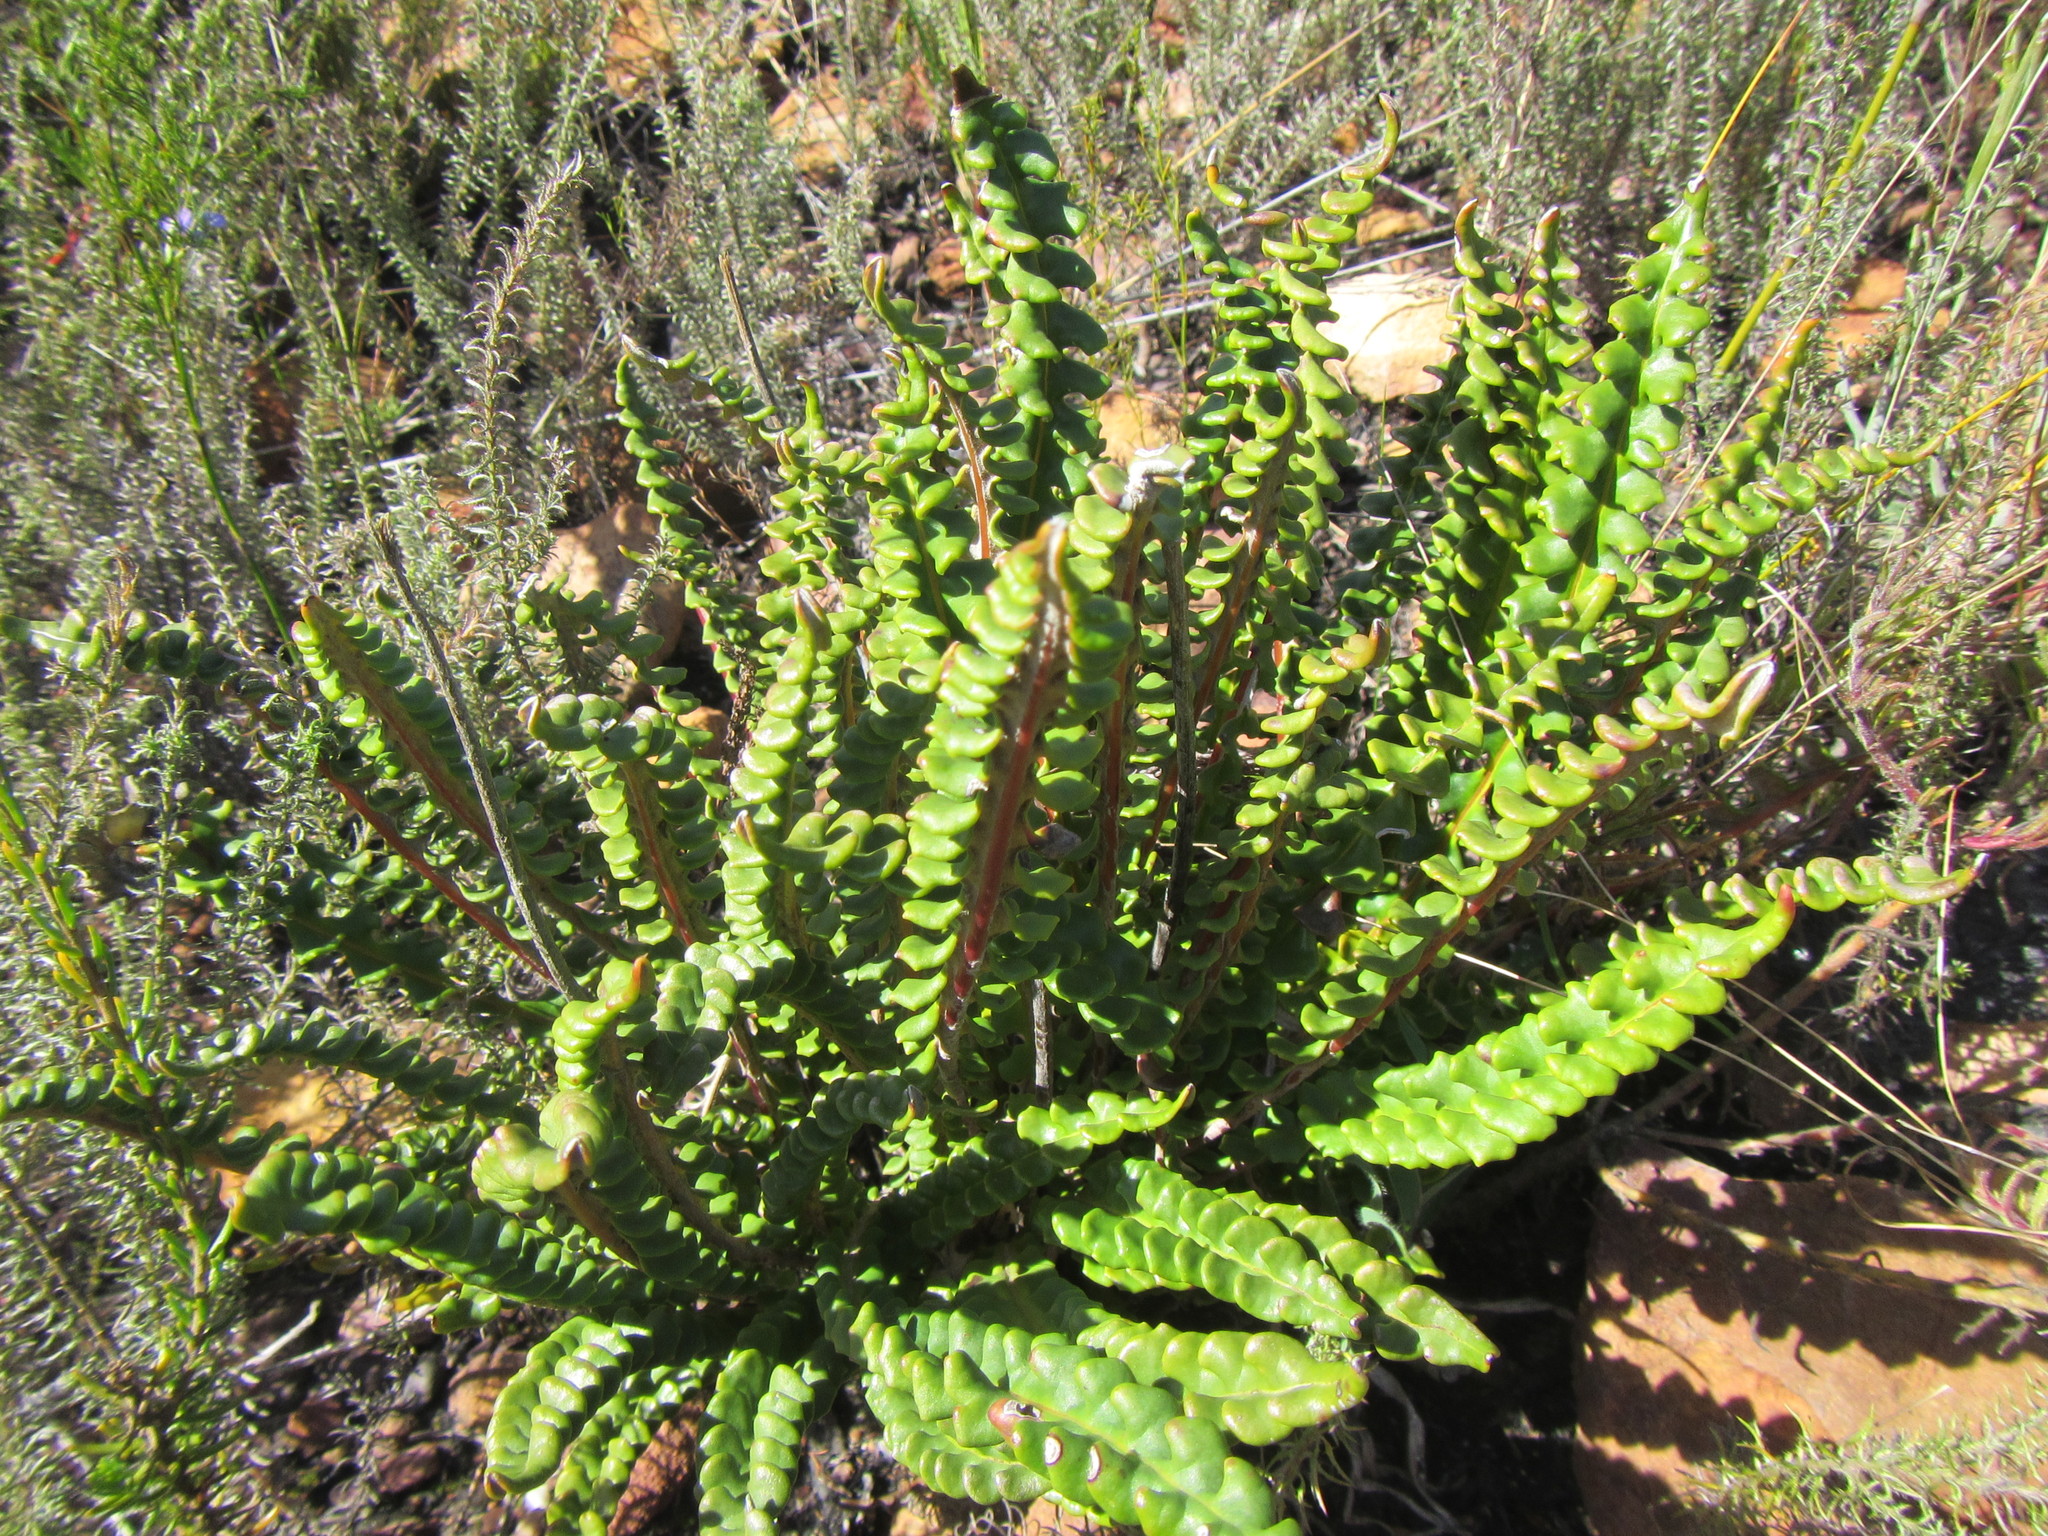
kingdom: Plantae
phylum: Tracheophyta
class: Magnoliopsida
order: Asterales
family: Asteraceae
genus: Gerbera
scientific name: Gerbera linnaei
